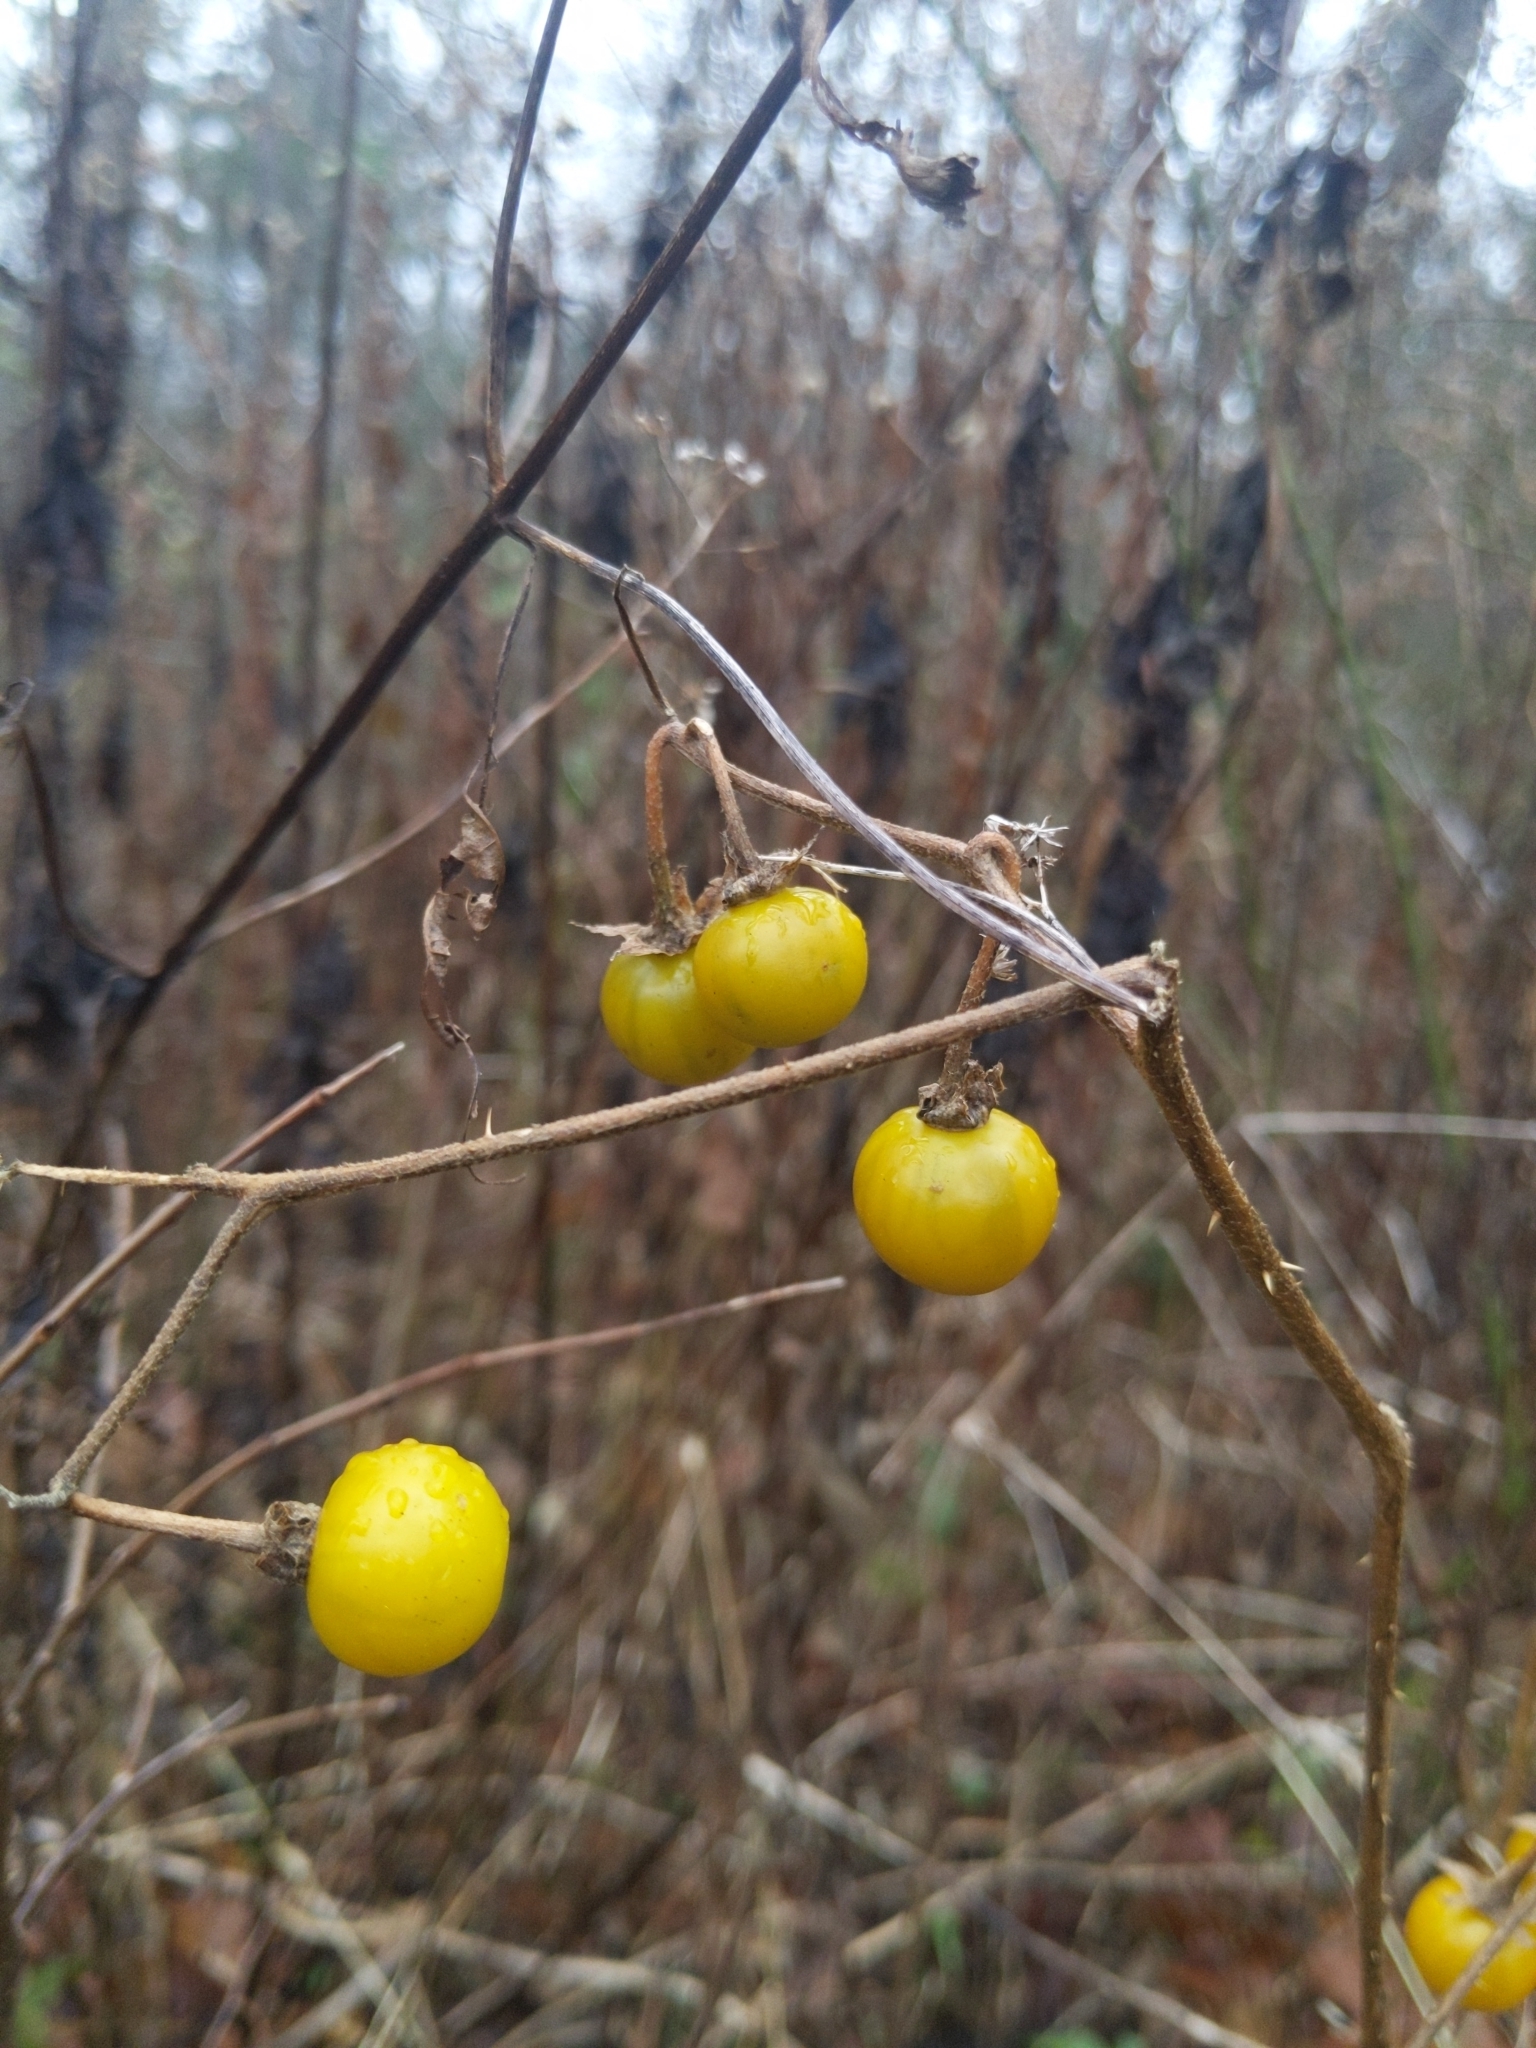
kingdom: Plantae
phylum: Tracheophyta
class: Magnoliopsida
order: Solanales
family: Solanaceae
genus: Solanum
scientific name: Solanum carolinense
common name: Horse-nettle
